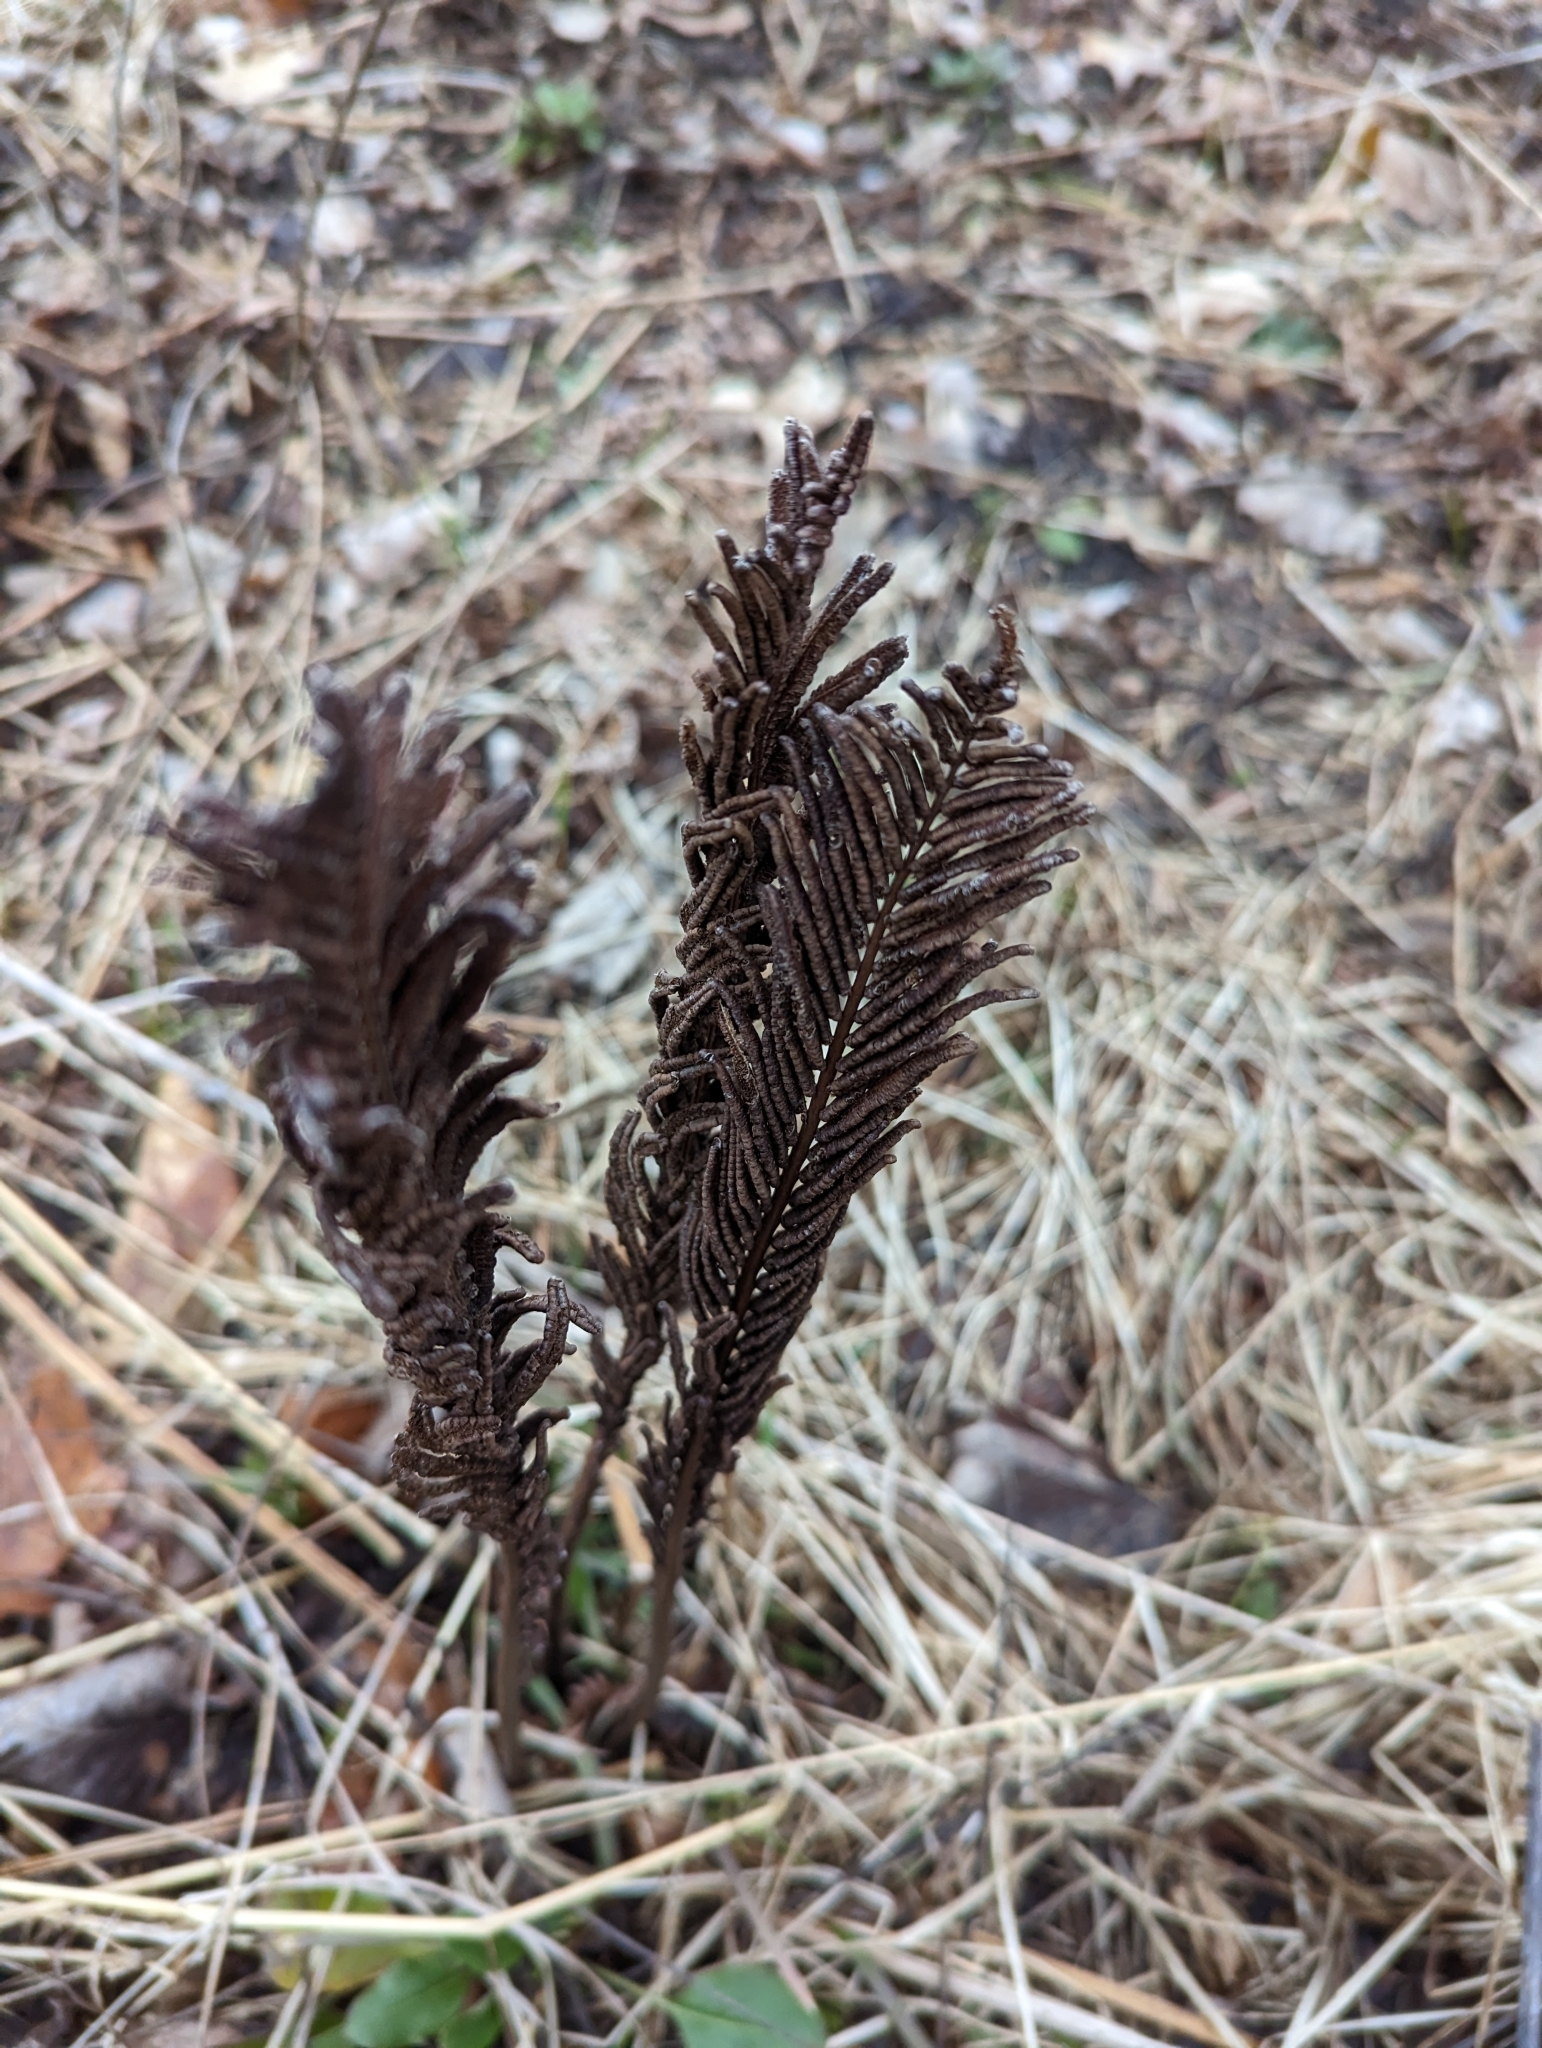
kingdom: Plantae
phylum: Tracheophyta
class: Polypodiopsida
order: Polypodiales
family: Onocleaceae
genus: Matteuccia
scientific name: Matteuccia struthiopteris
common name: Ostrich fern
